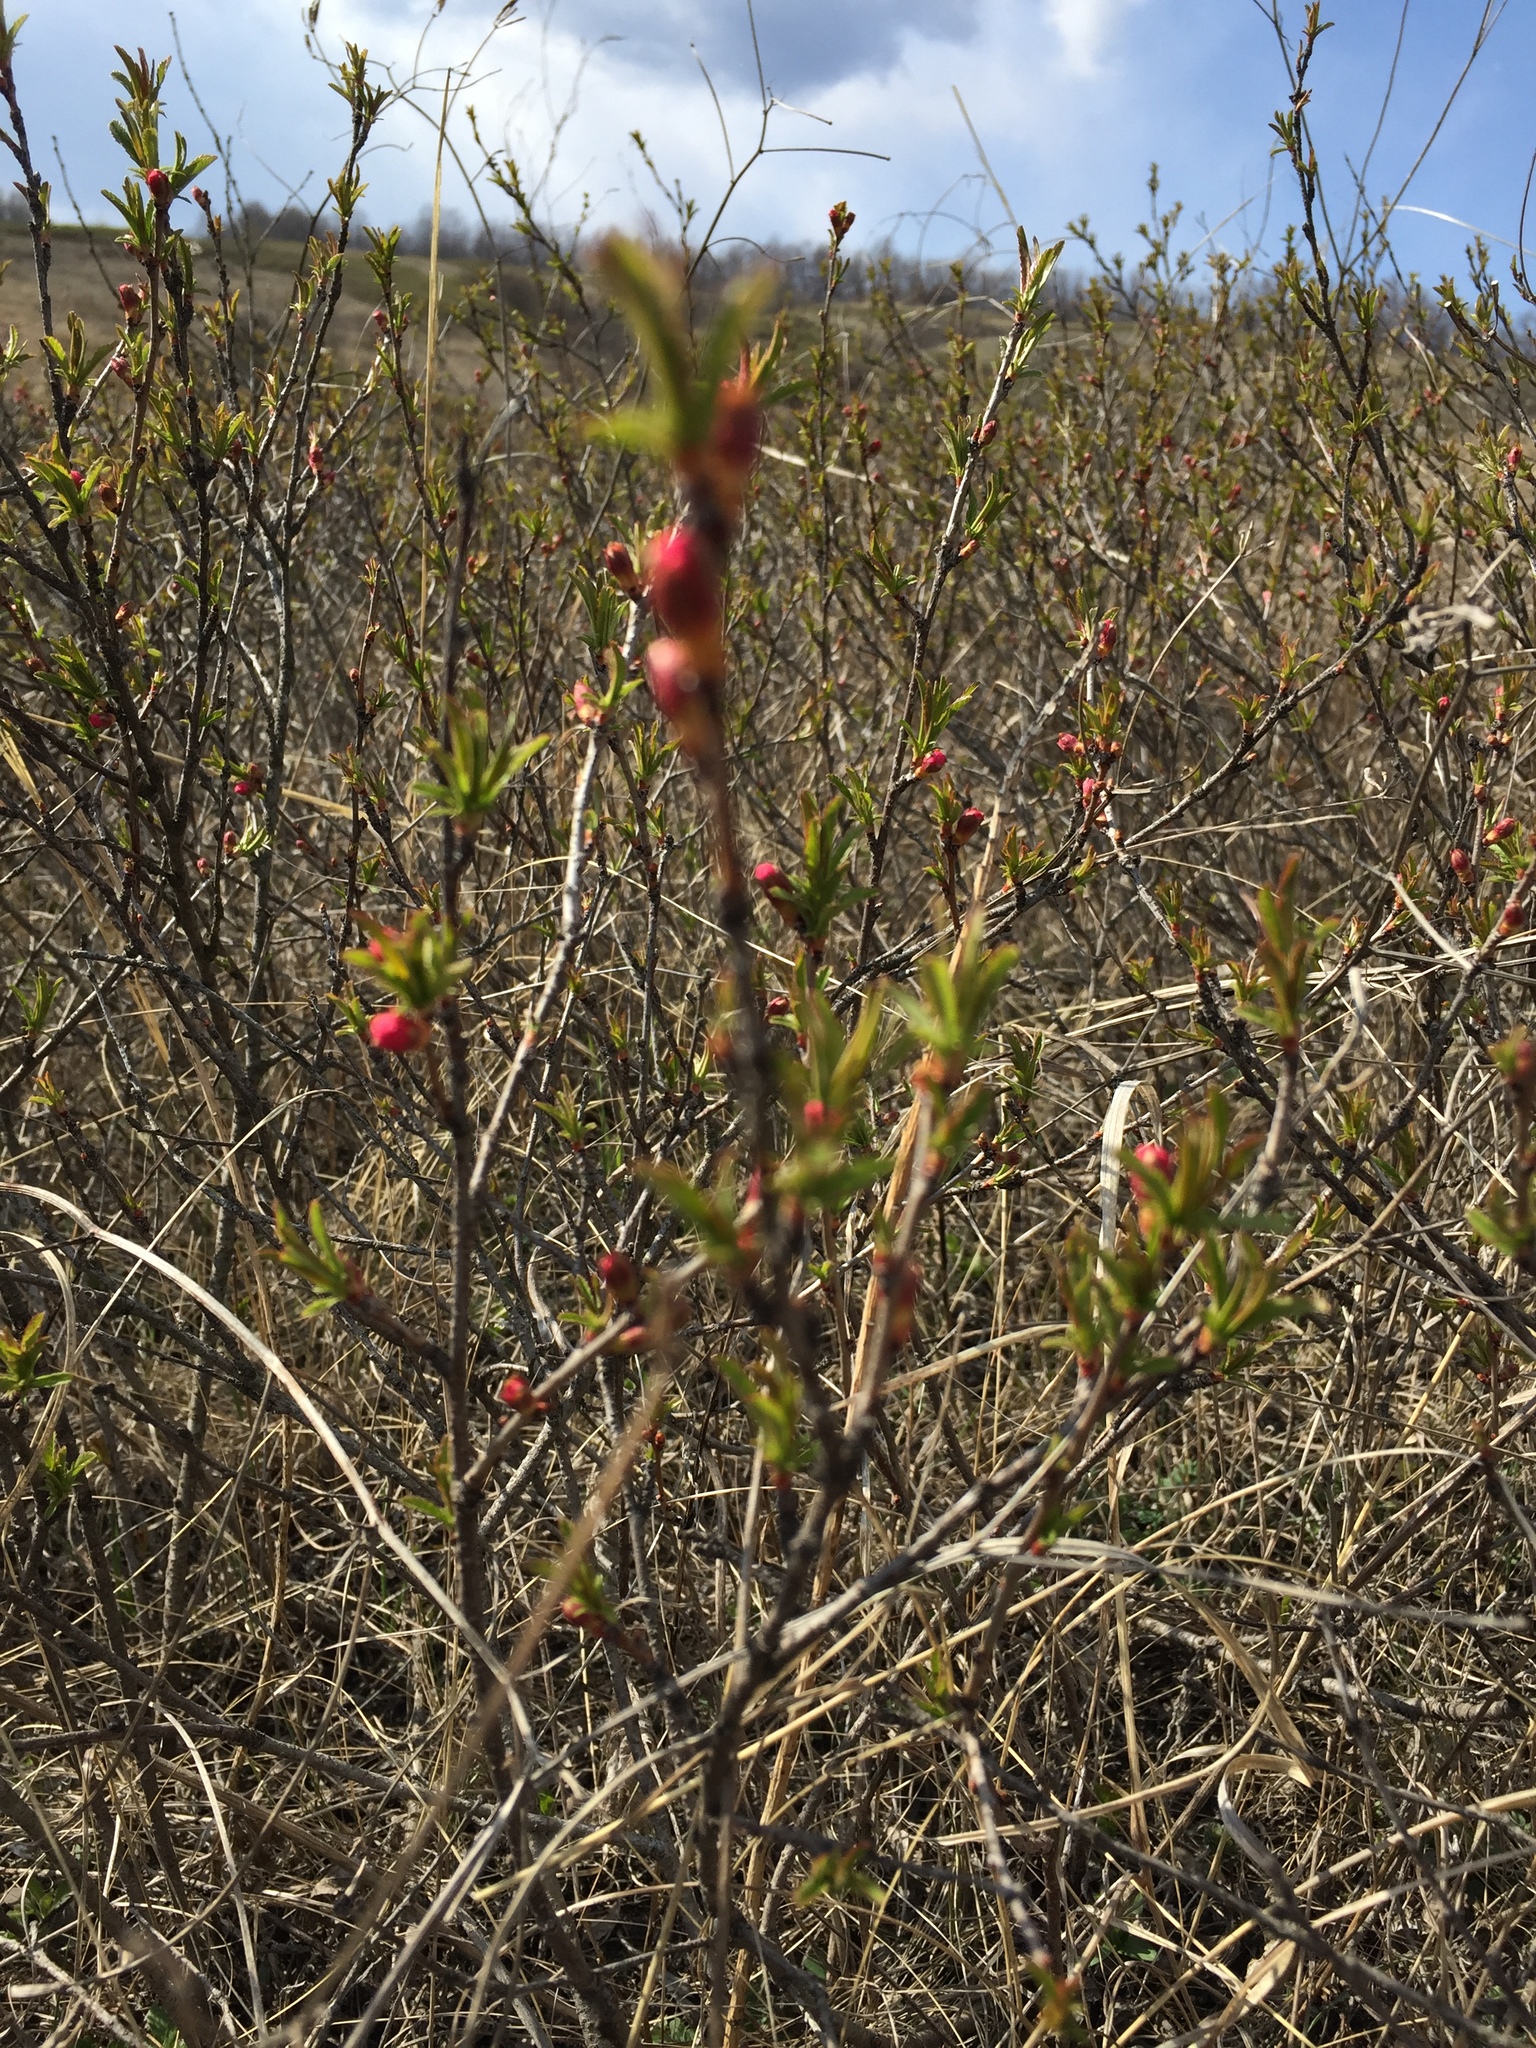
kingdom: Plantae
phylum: Tracheophyta
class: Magnoliopsida
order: Rosales
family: Rosaceae
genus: Prunus
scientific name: Prunus tenella
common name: Dwarf russian almond
